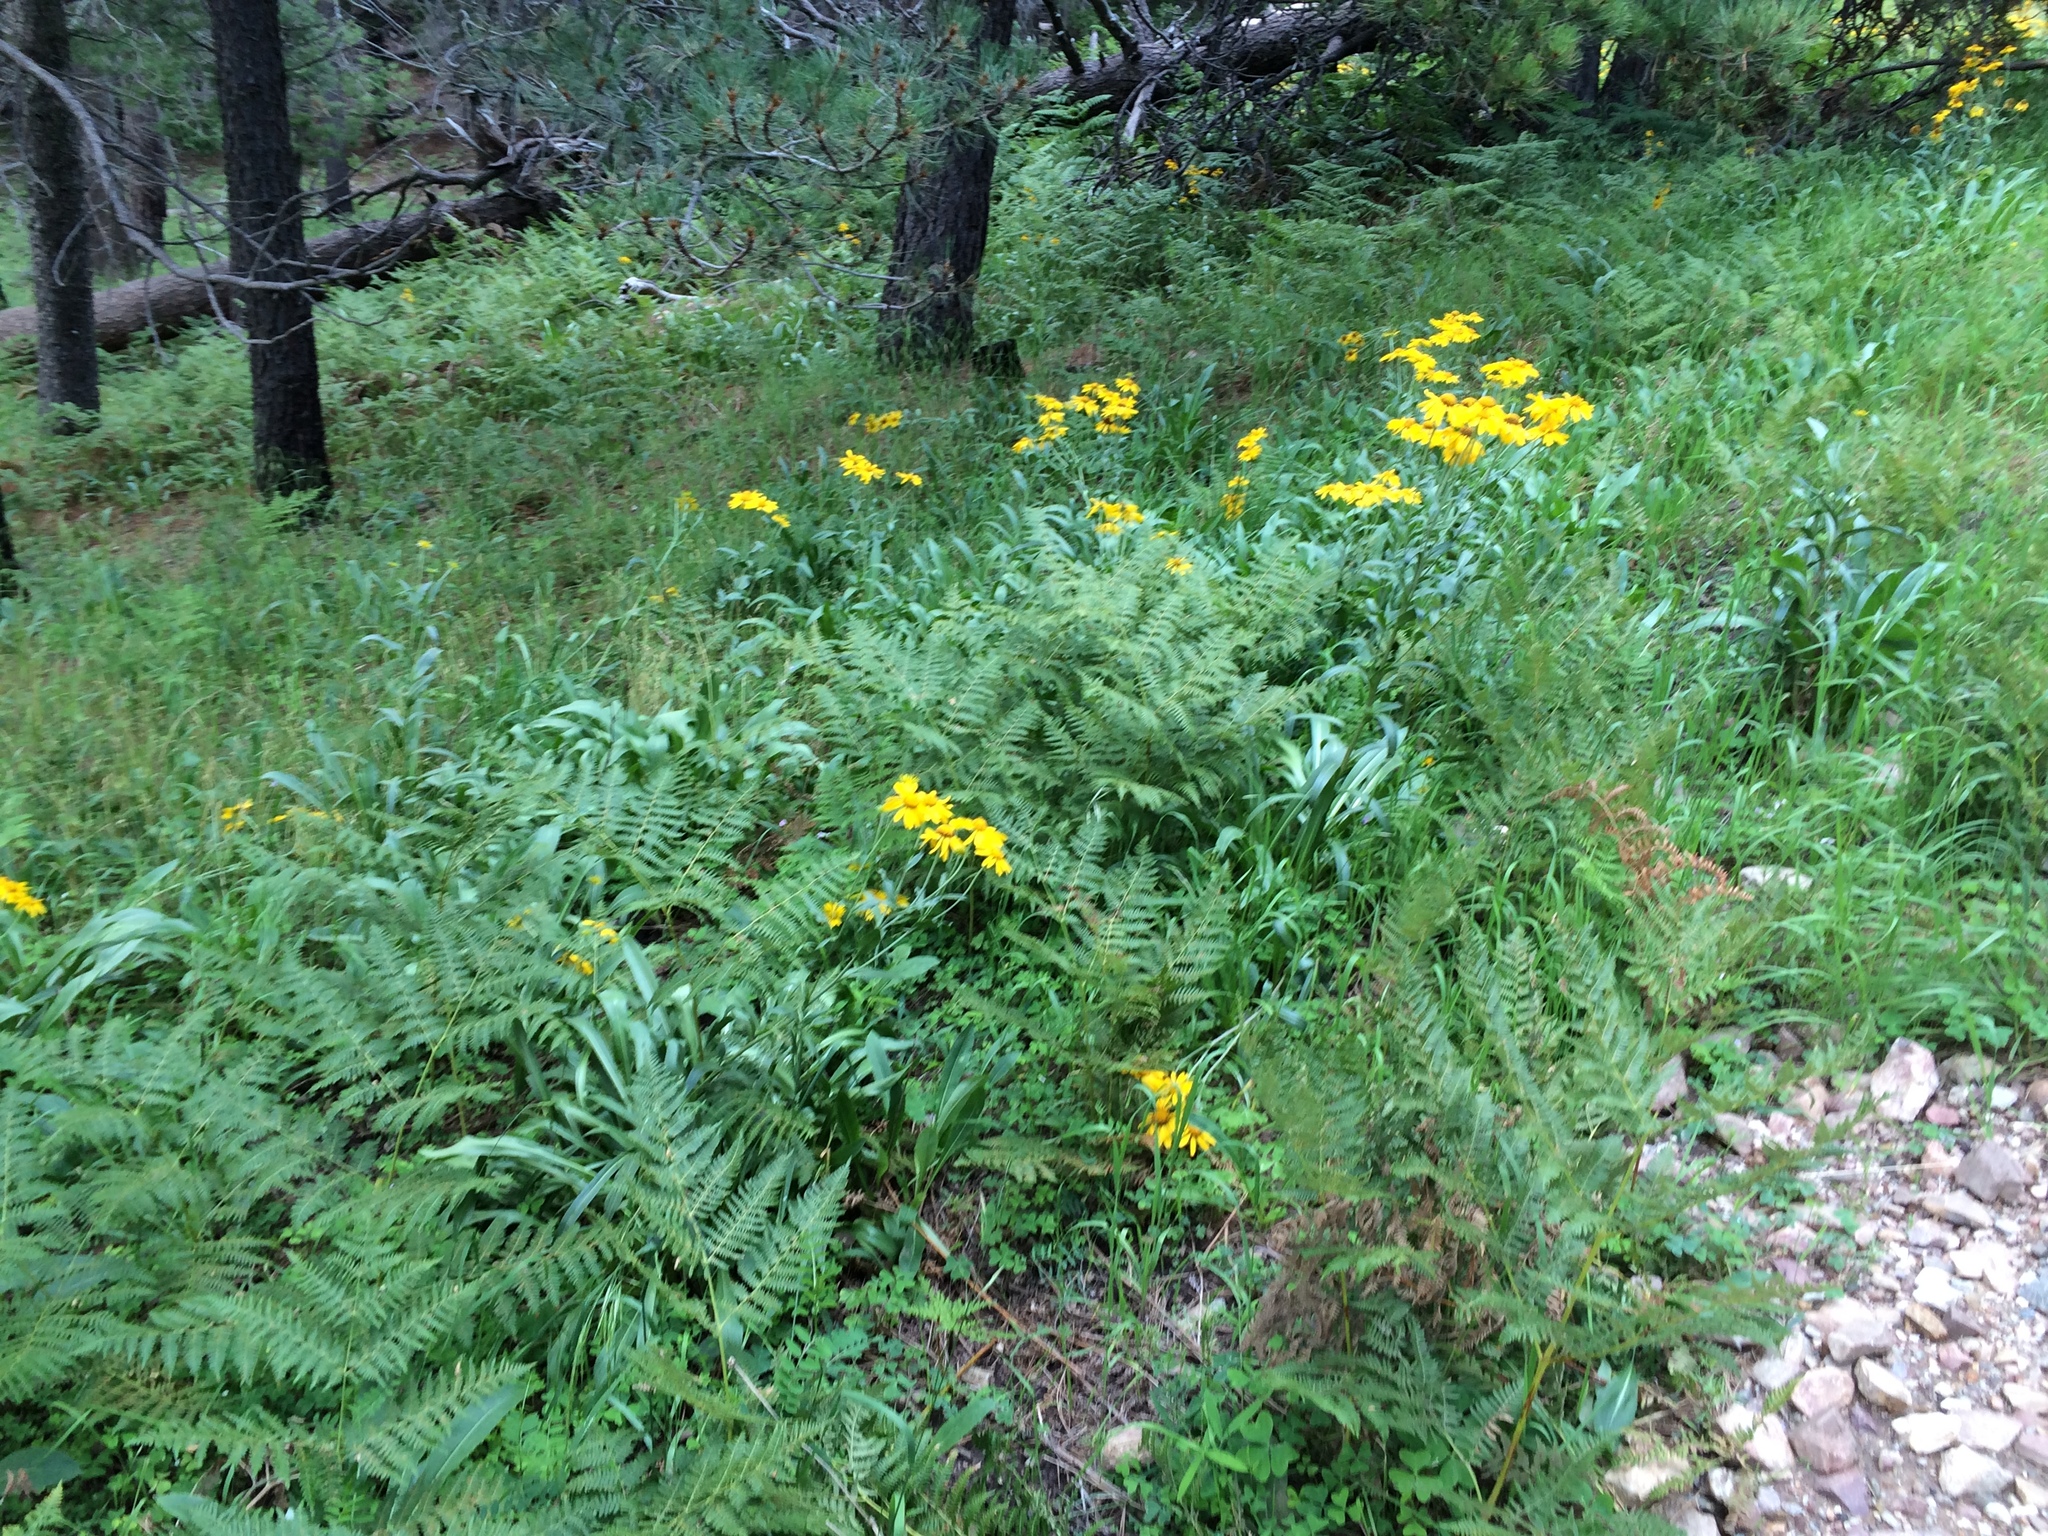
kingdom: Plantae
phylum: Tracheophyta
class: Polypodiopsida
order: Polypodiales
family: Dennstaedtiaceae
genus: Pteridium
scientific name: Pteridium aquilinum
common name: Bracken
